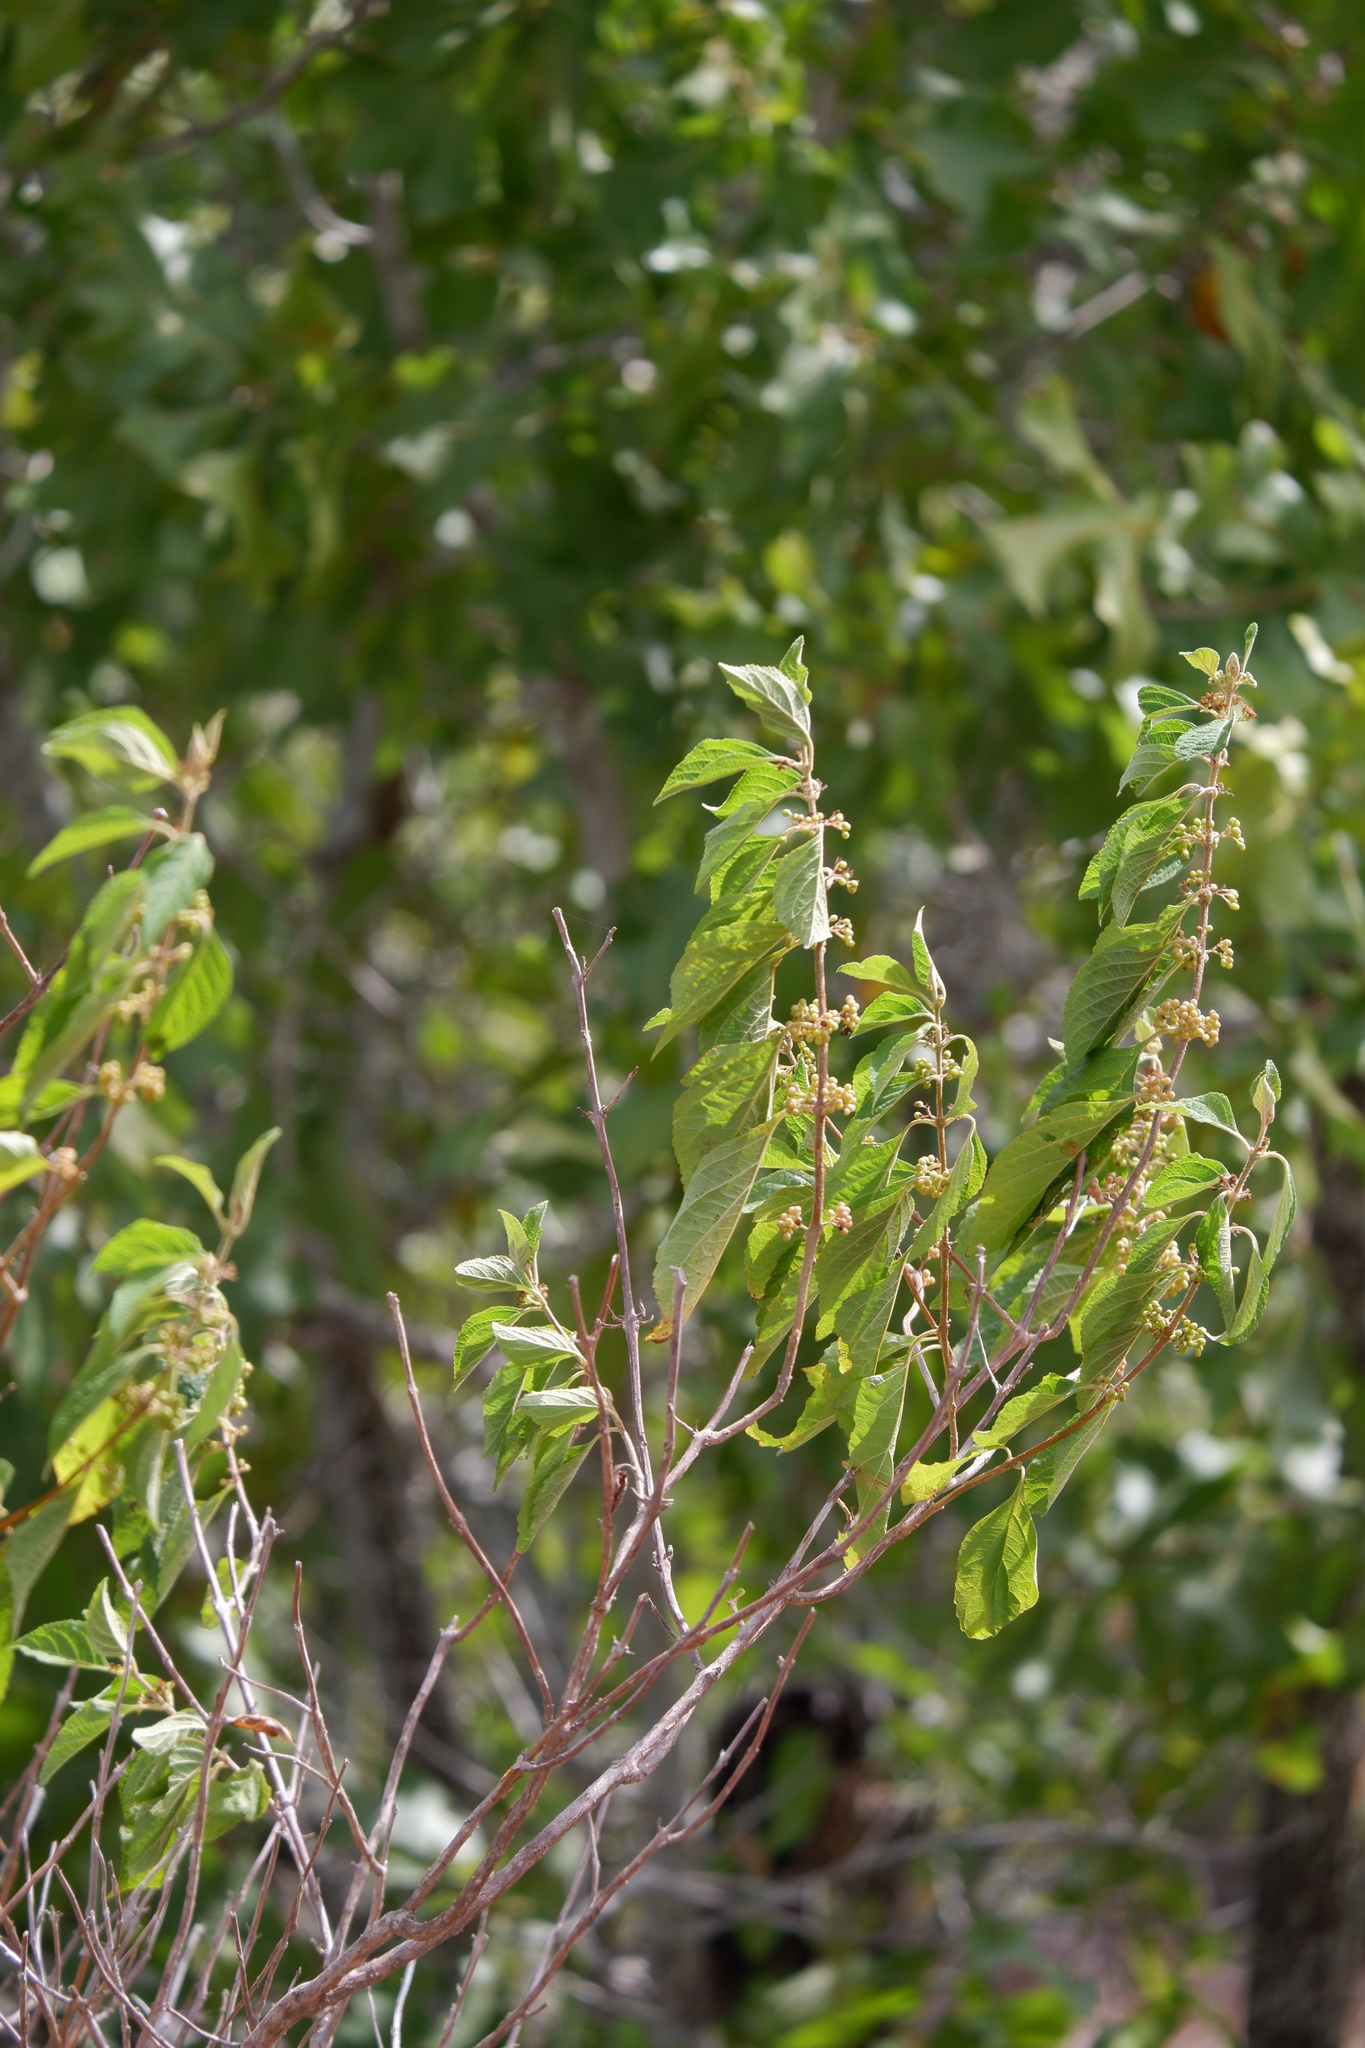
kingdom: Plantae
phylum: Tracheophyta
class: Magnoliopsida
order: Lamiales
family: Lamiaceae
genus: Callicarpa
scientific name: Callicarpa americana
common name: American beautyberry
